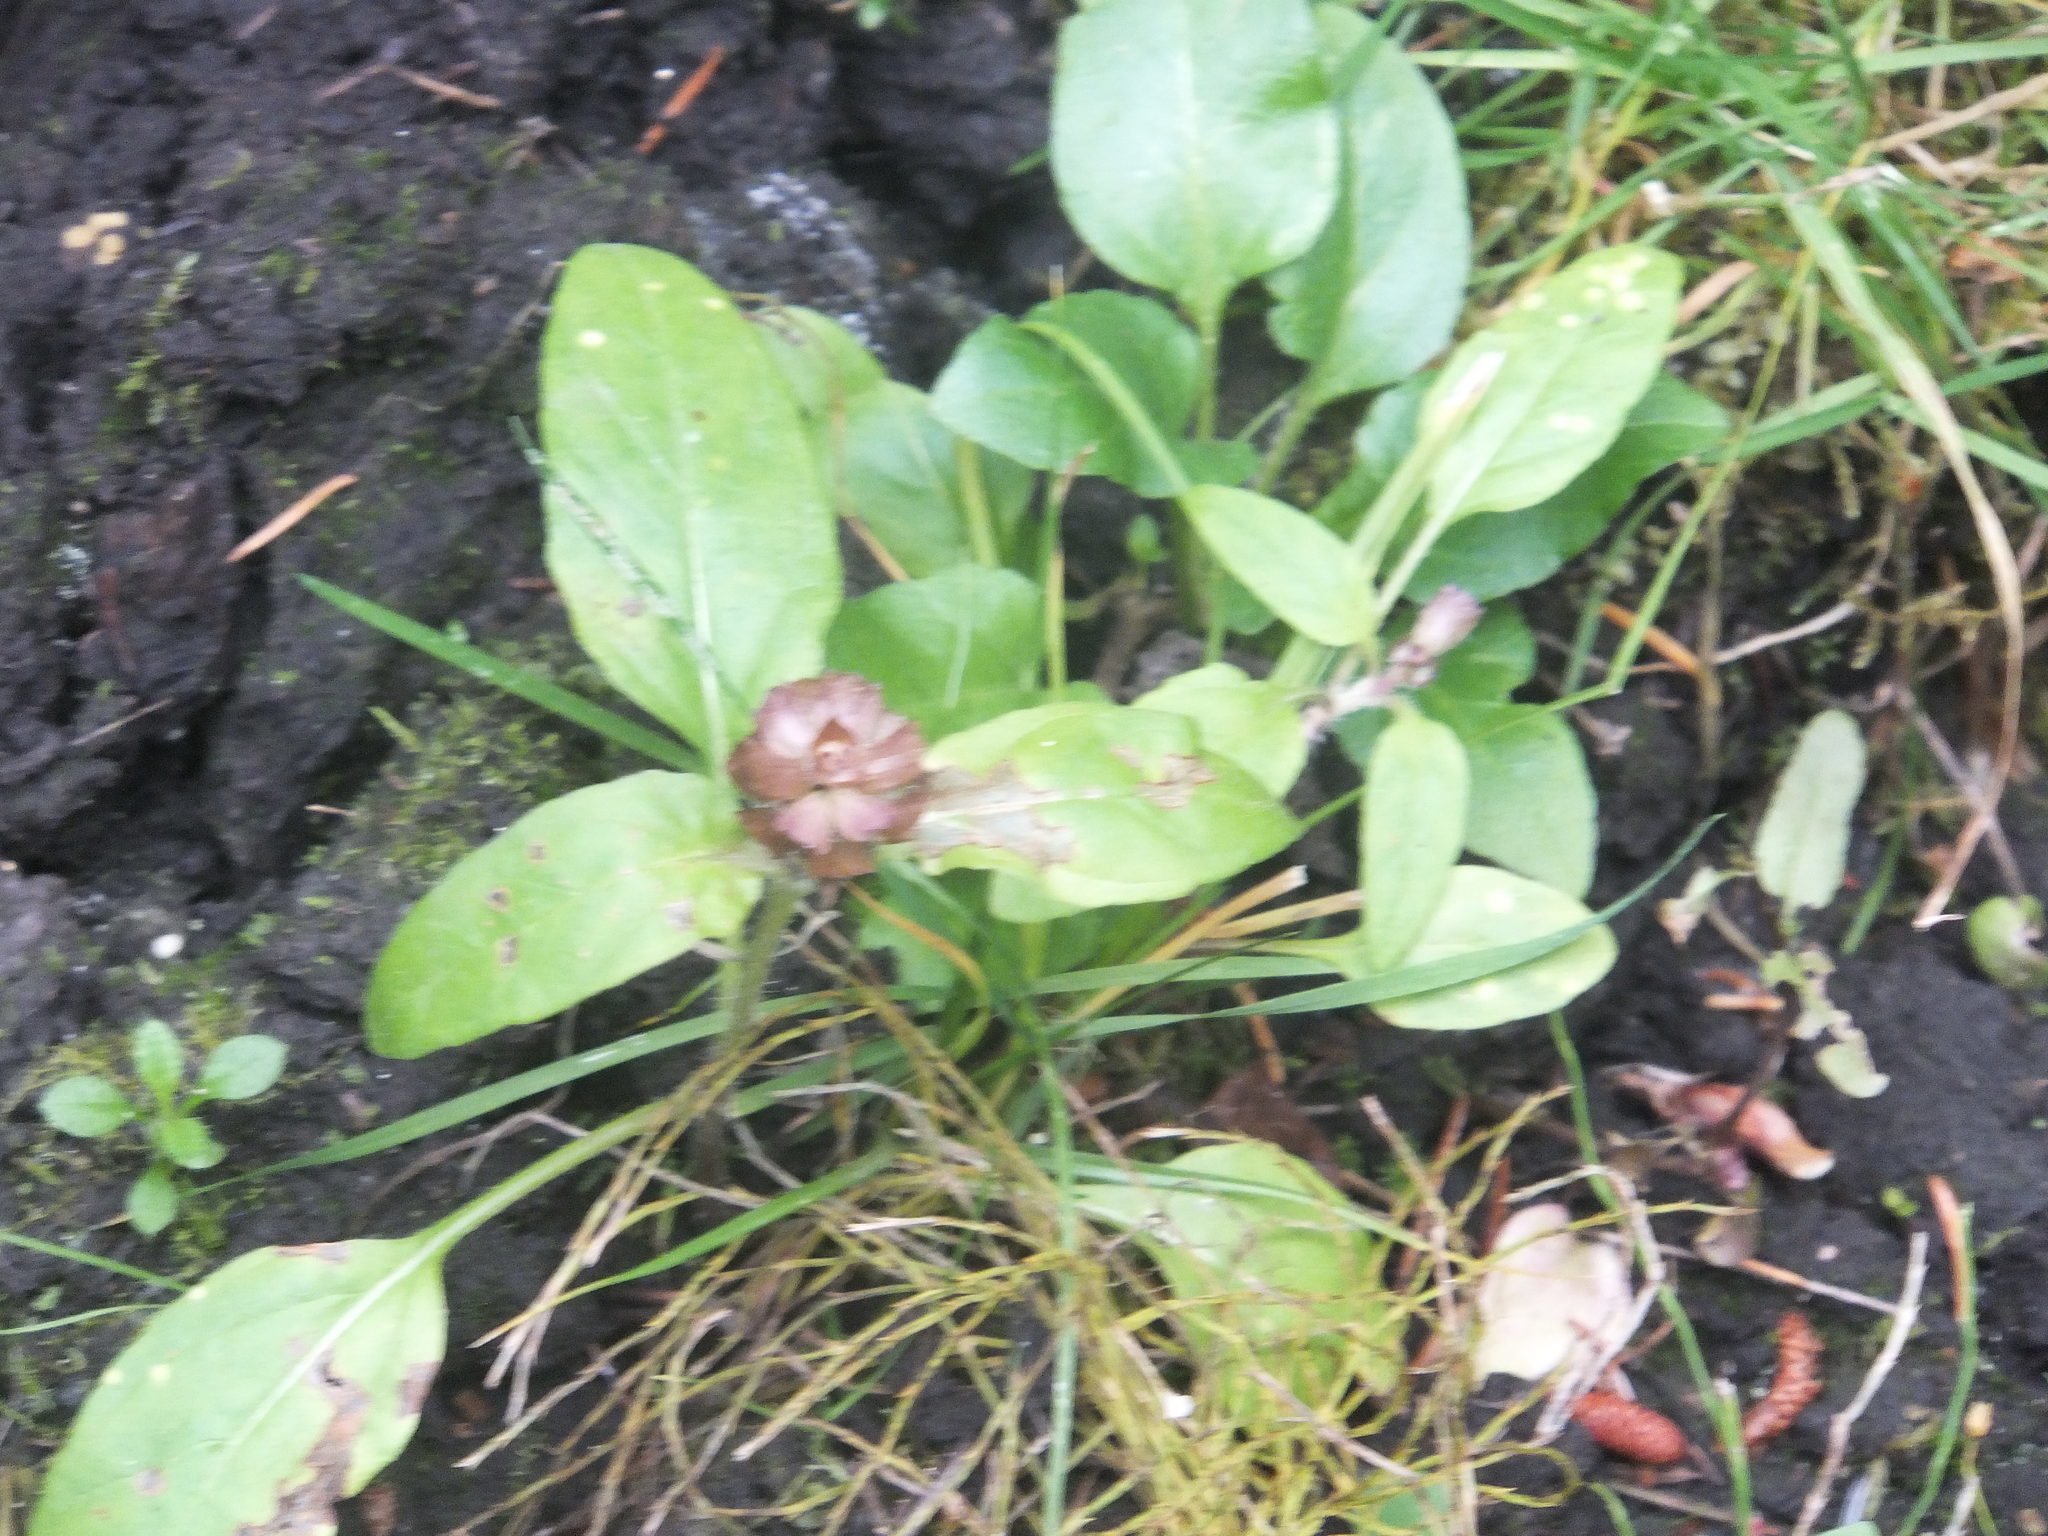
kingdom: Plantae
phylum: Tracheophyta
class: Magnoliopsida
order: Lamiales
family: Lamiaceae
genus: Prunella
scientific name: Prunella vulgaris
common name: Heal-all
